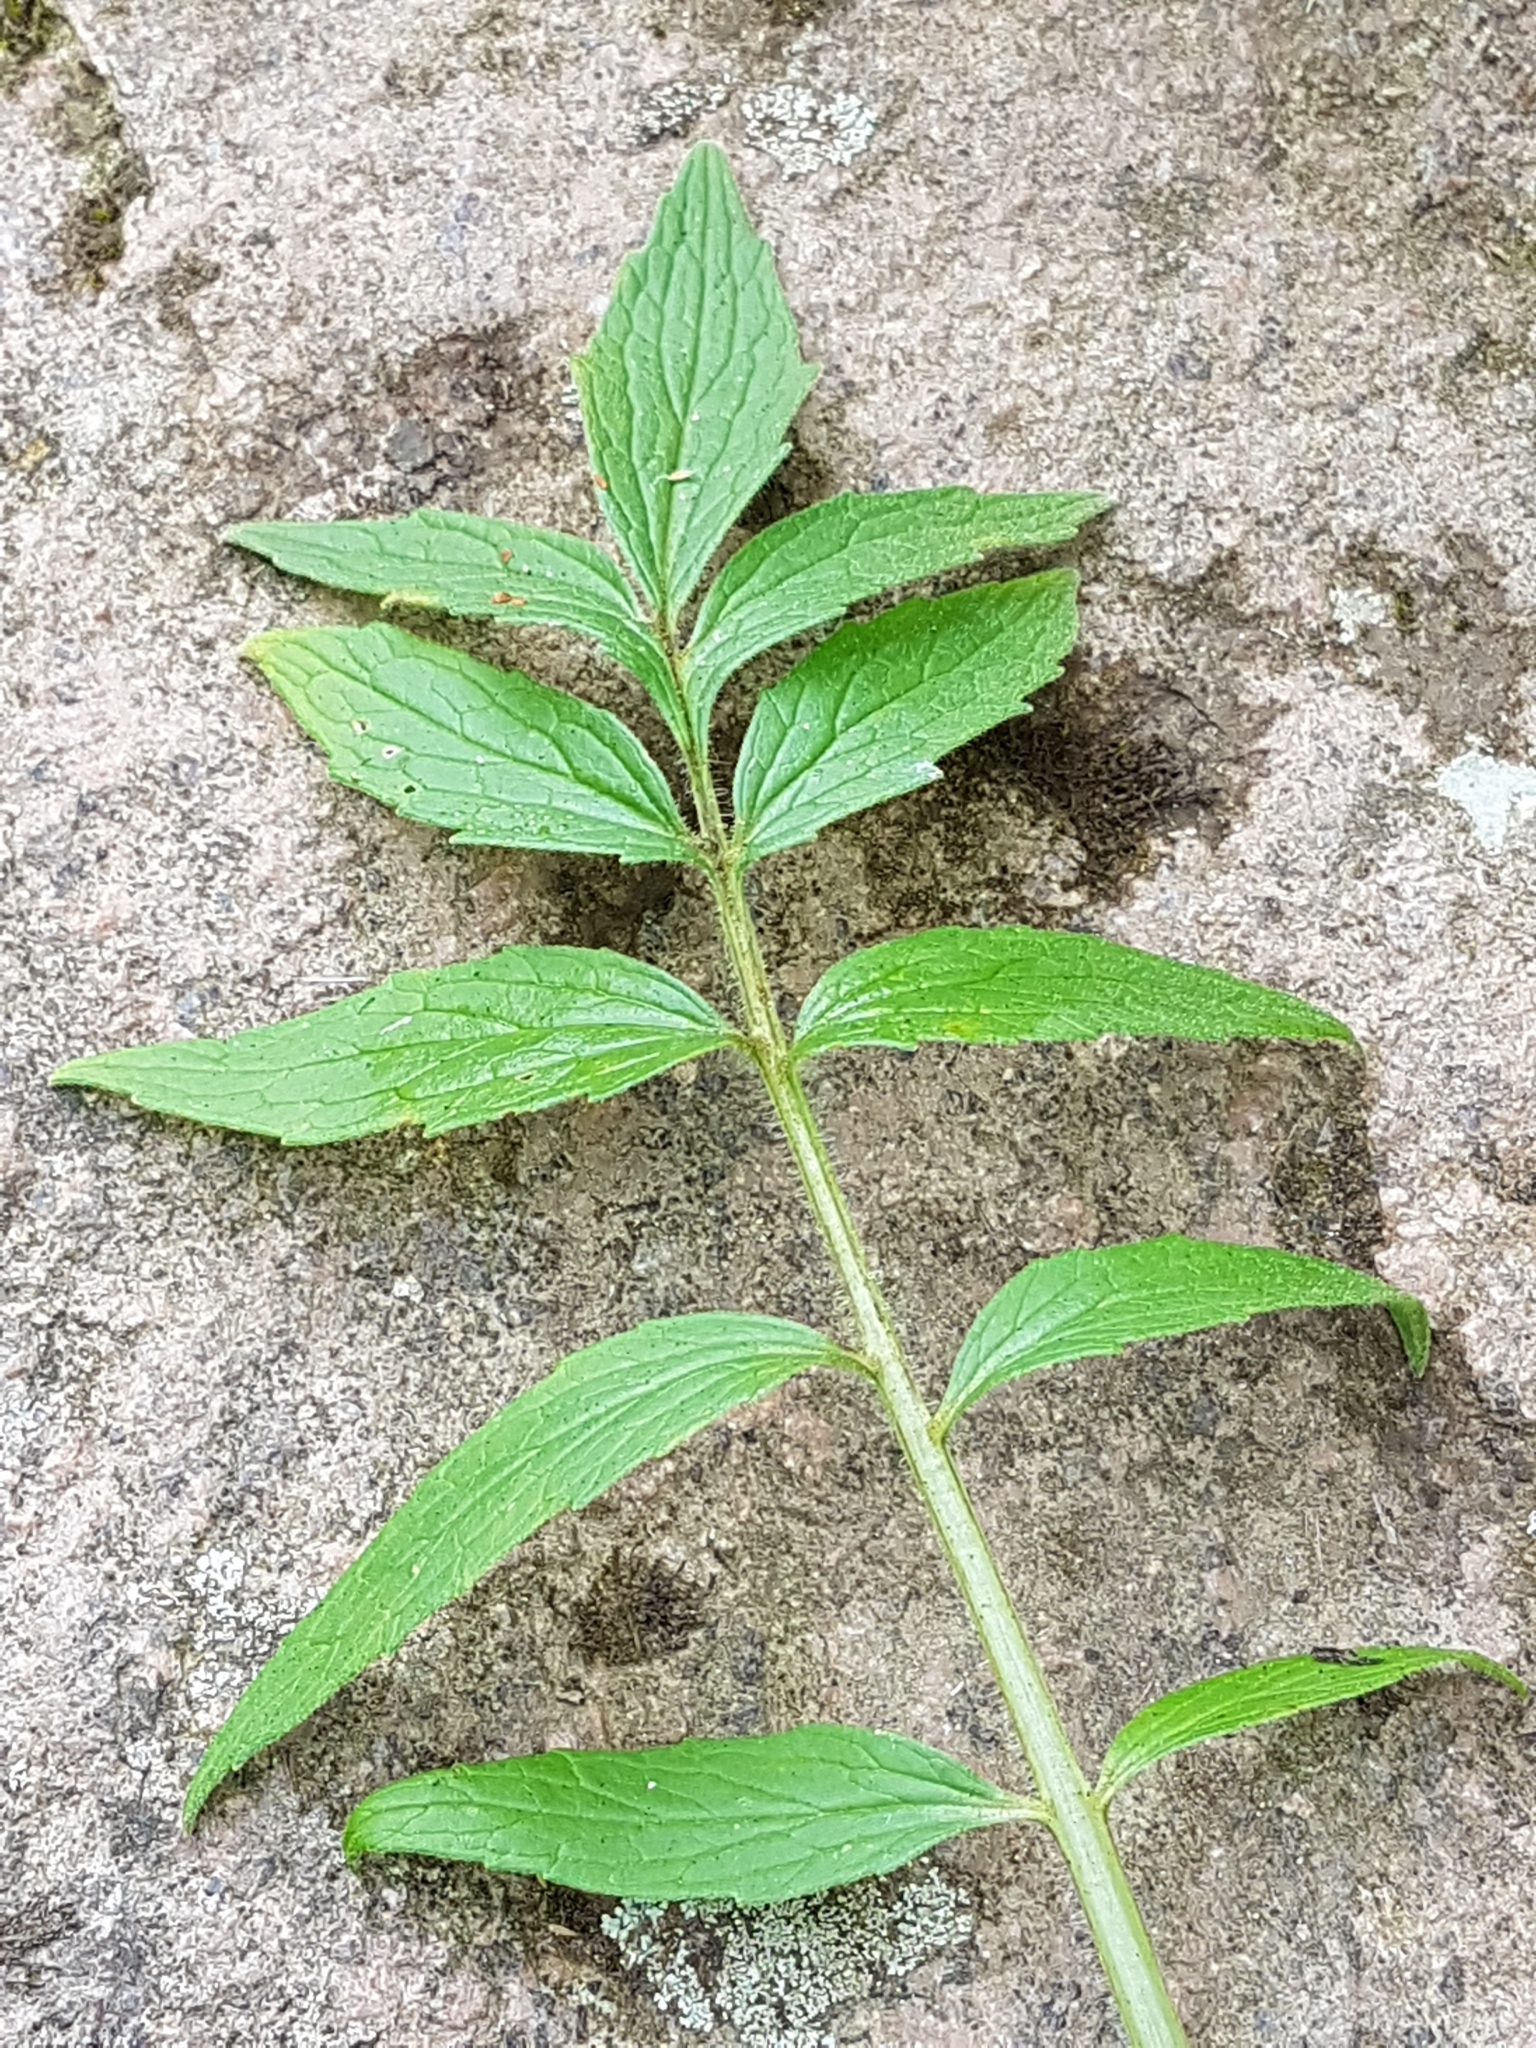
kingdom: Plantae
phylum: Tracheophyta
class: Magnoliopsida
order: Dipsacales
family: Caprifoliaceae
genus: Valeriana
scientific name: Valeriana officinalis
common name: Common valerian
